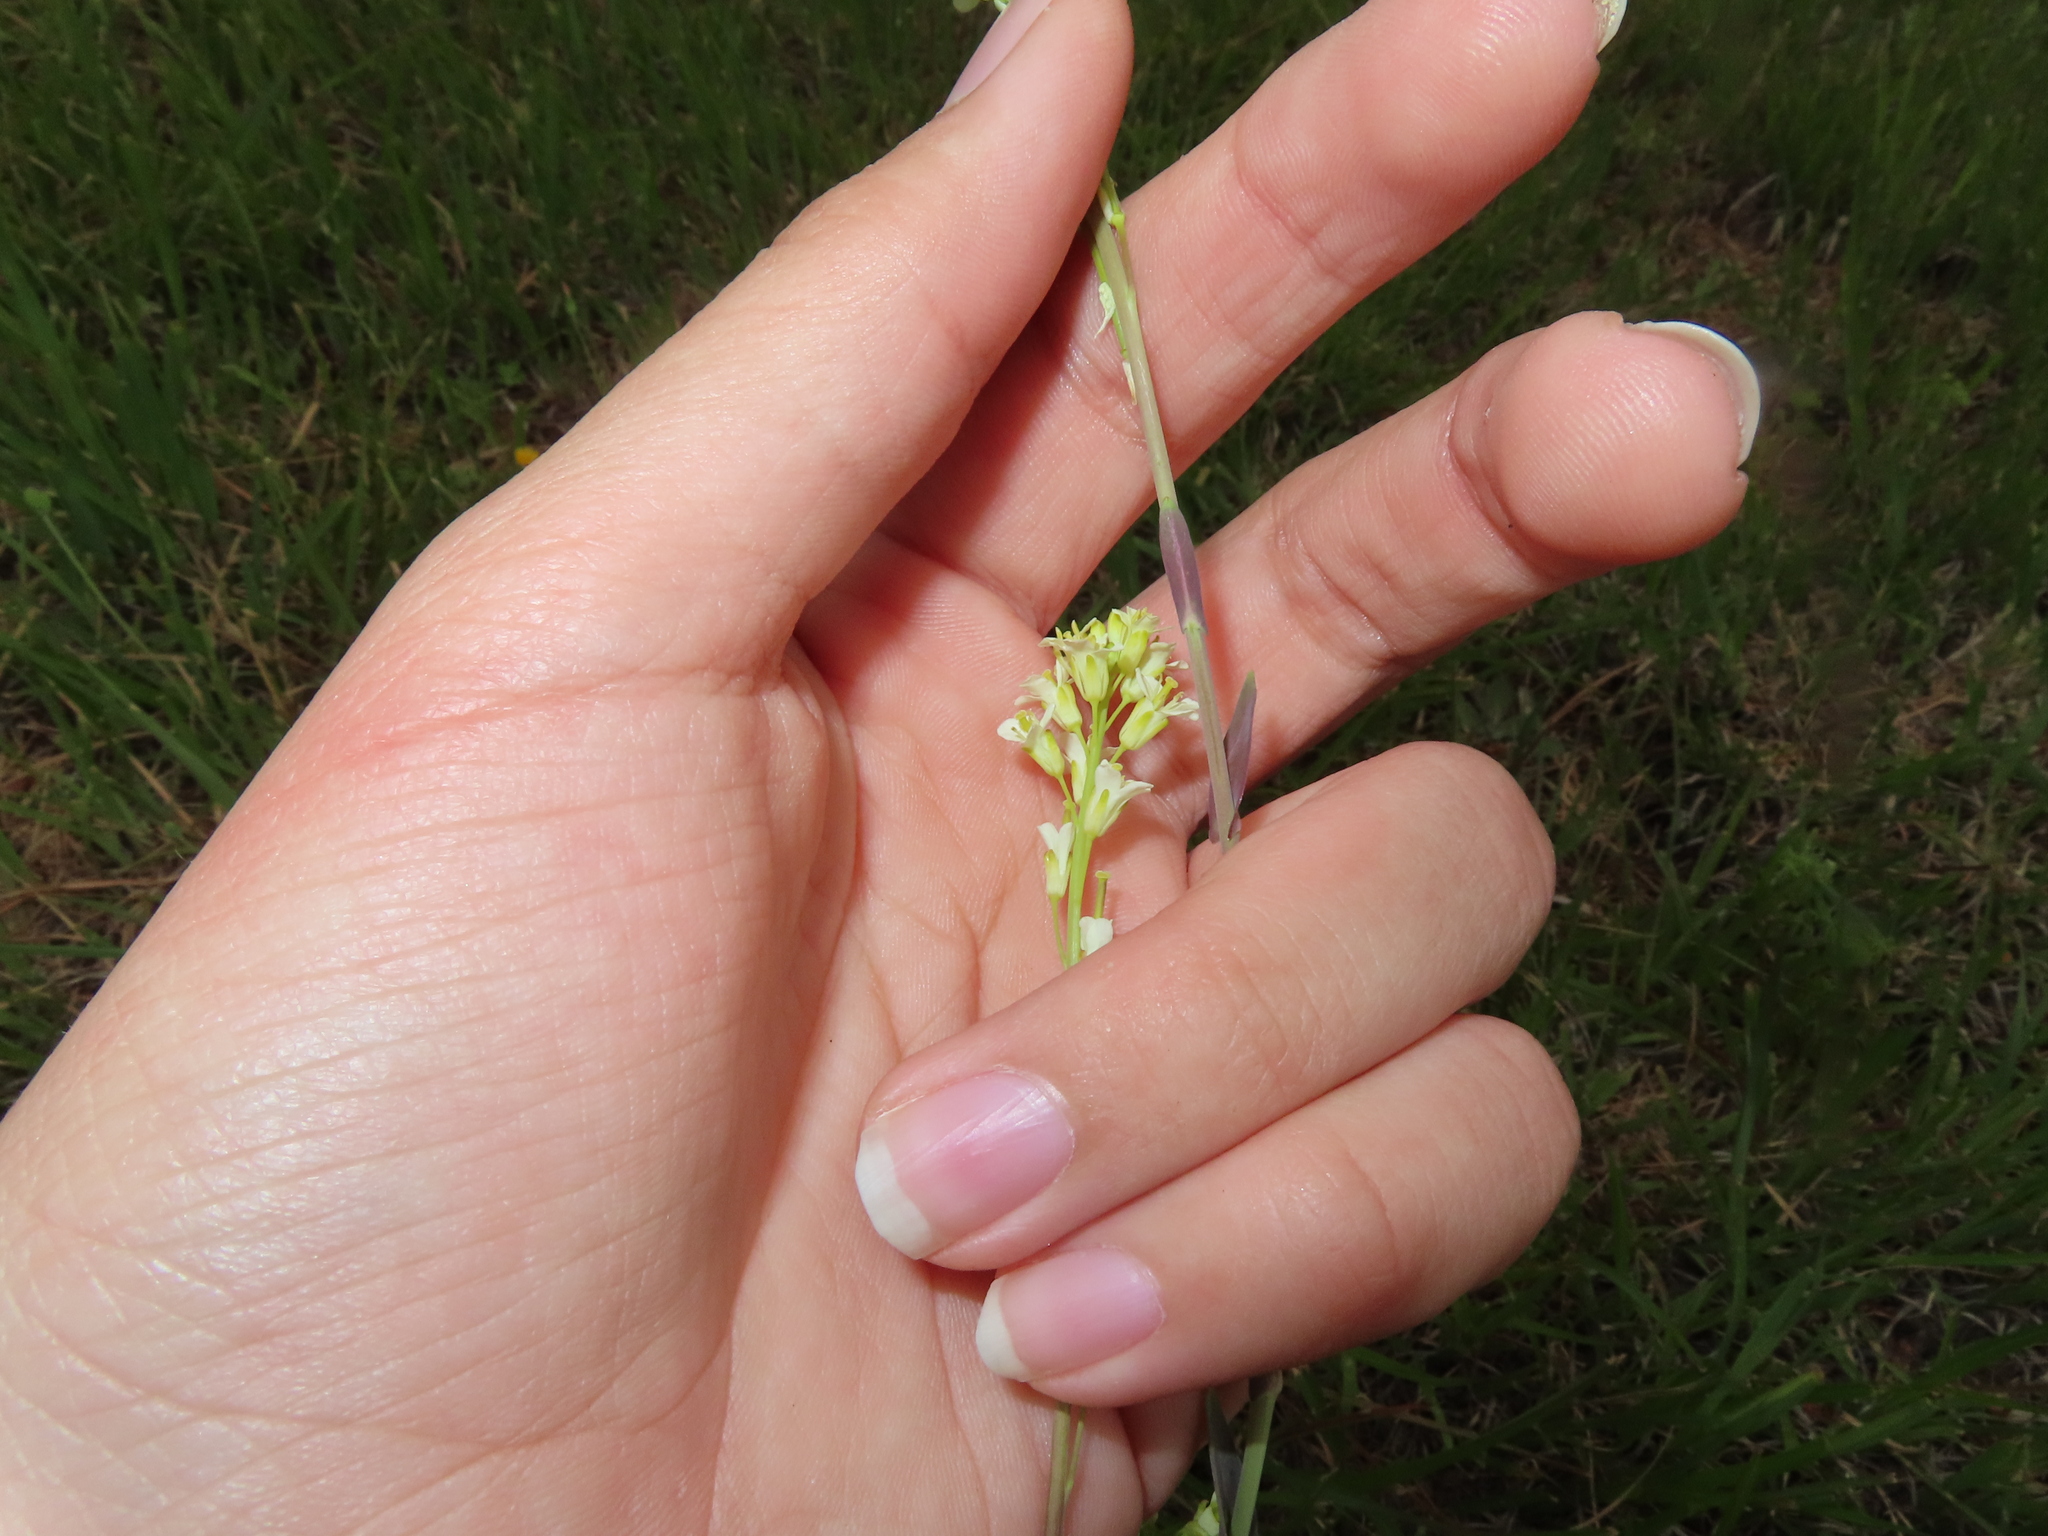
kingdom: Plantae
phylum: Tracheophyta
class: Magnoliopsida
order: Brassicales
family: Brassicaceae
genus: Turritis
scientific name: Turritis glabra
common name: Tower rockcress
